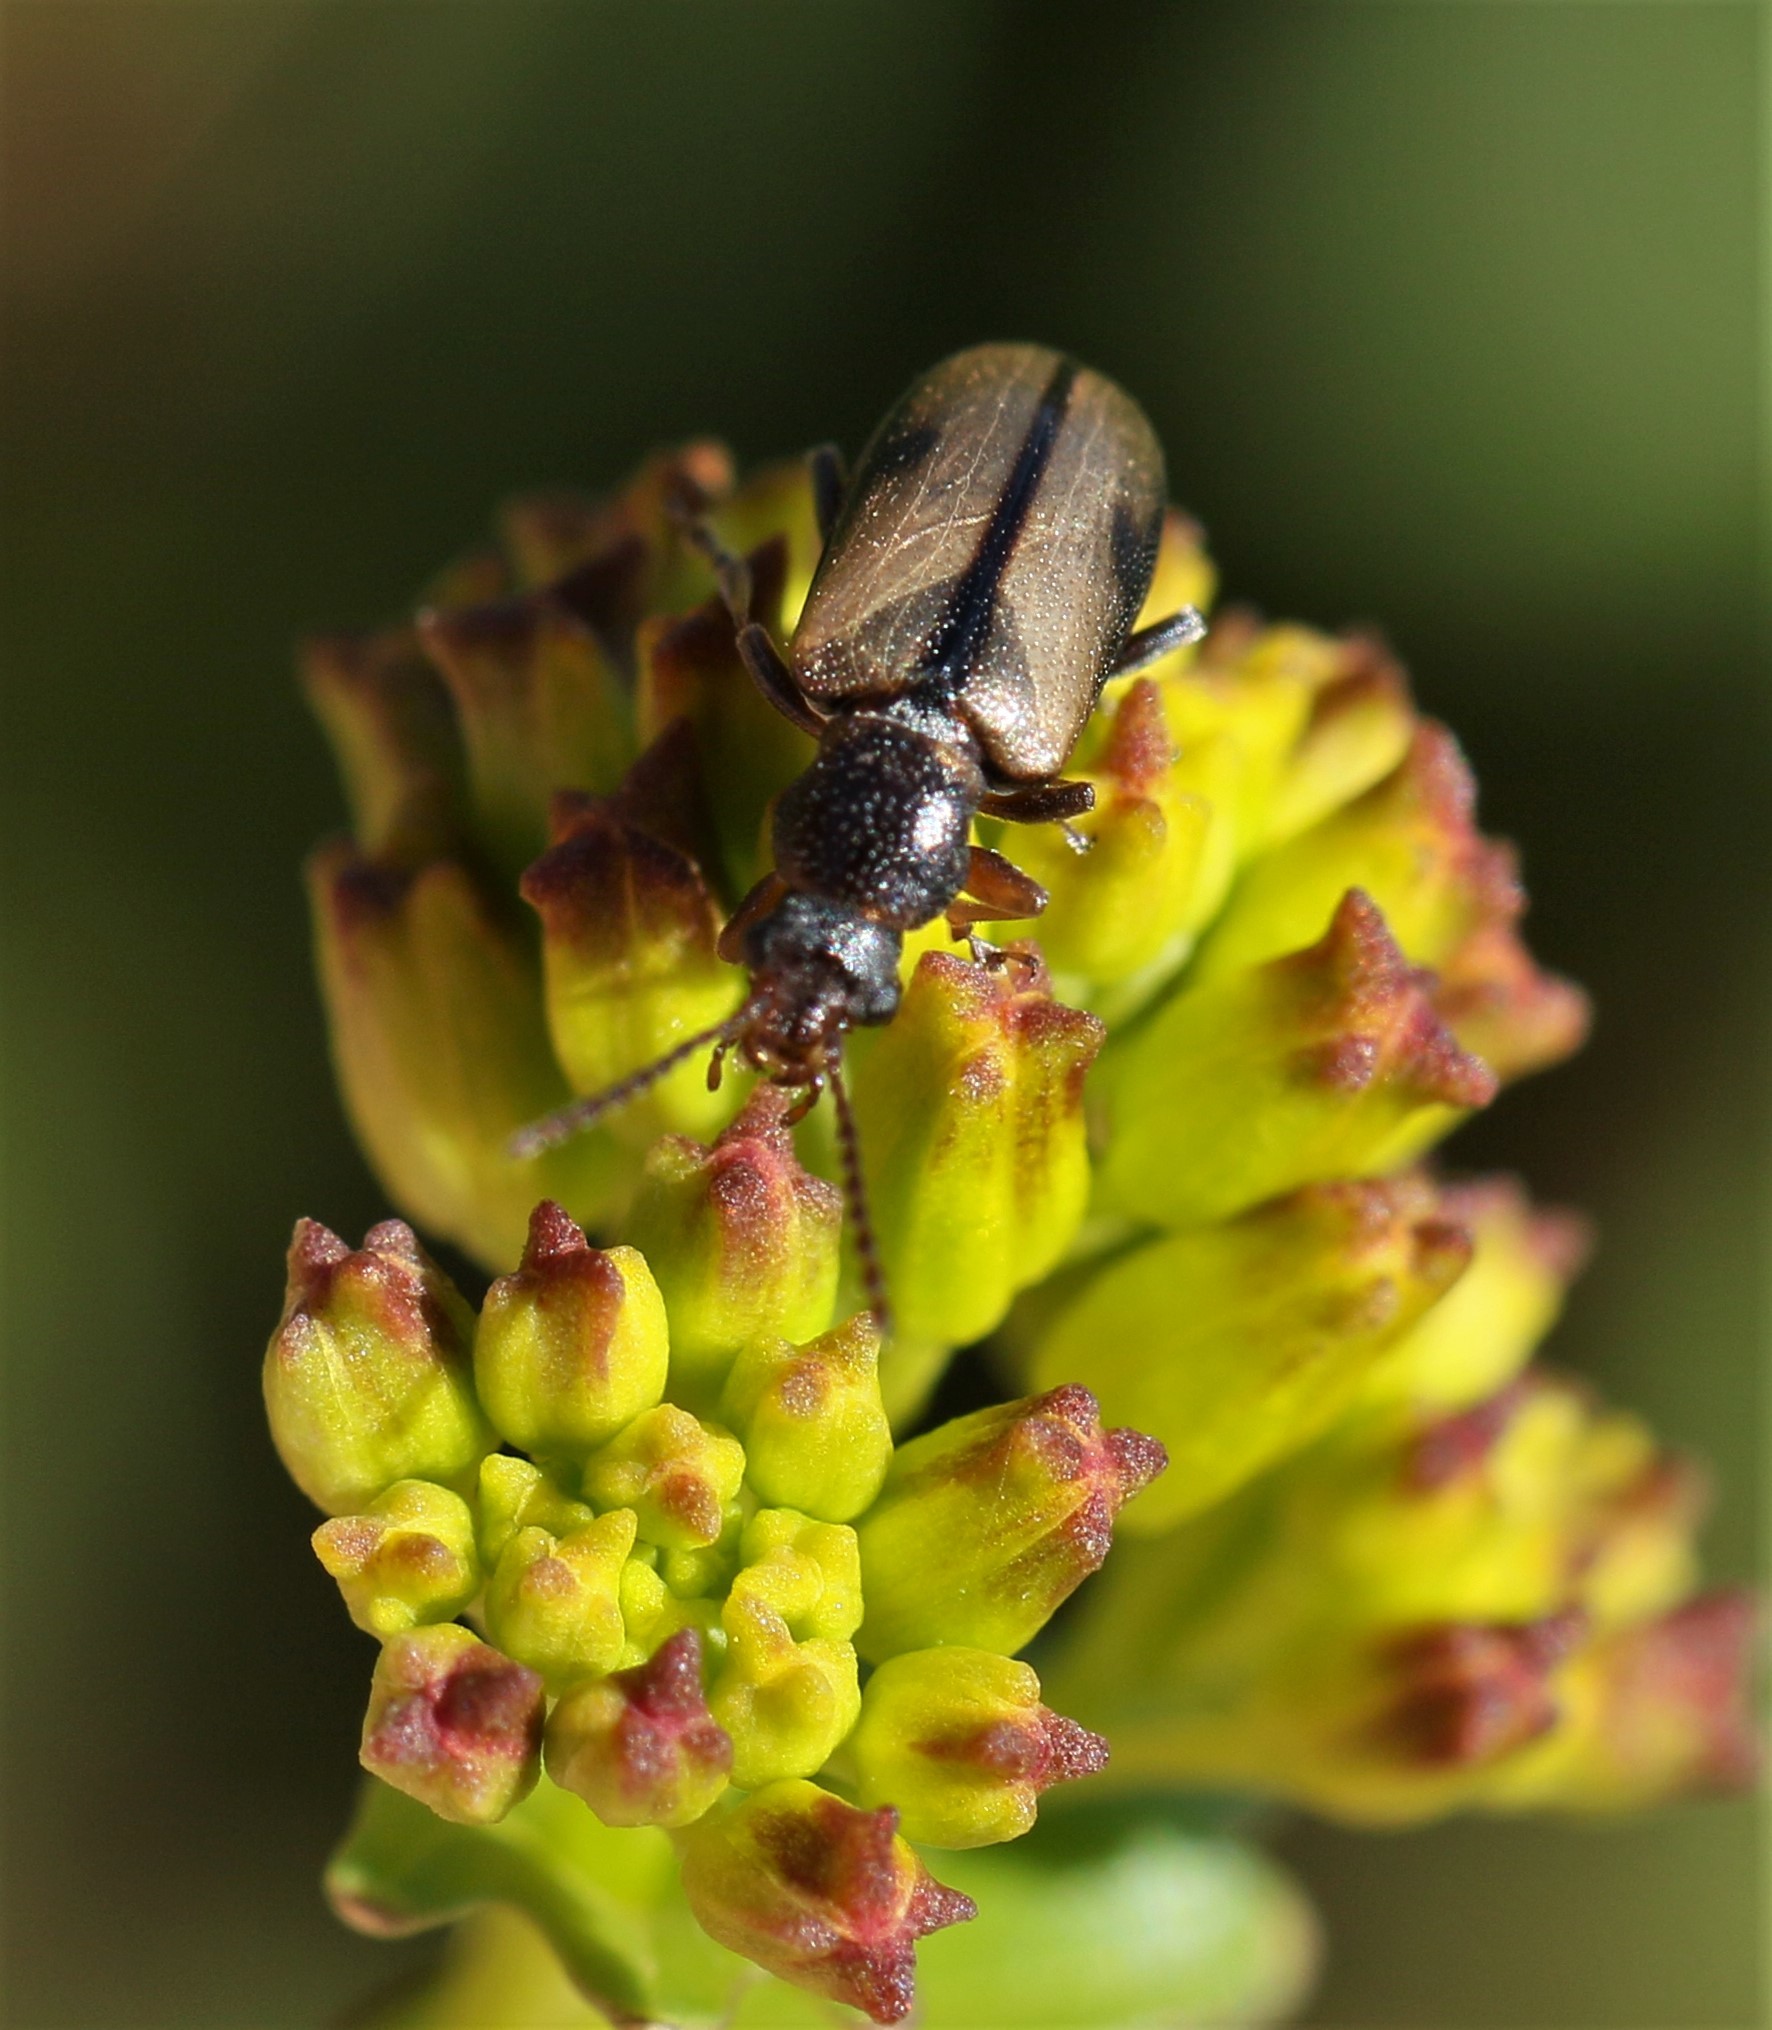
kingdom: Animalia
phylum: Arthropoda
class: Insecta
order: Coleoptera
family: Orsodacnidae
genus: Orsodacne
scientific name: Orsodacne atra
